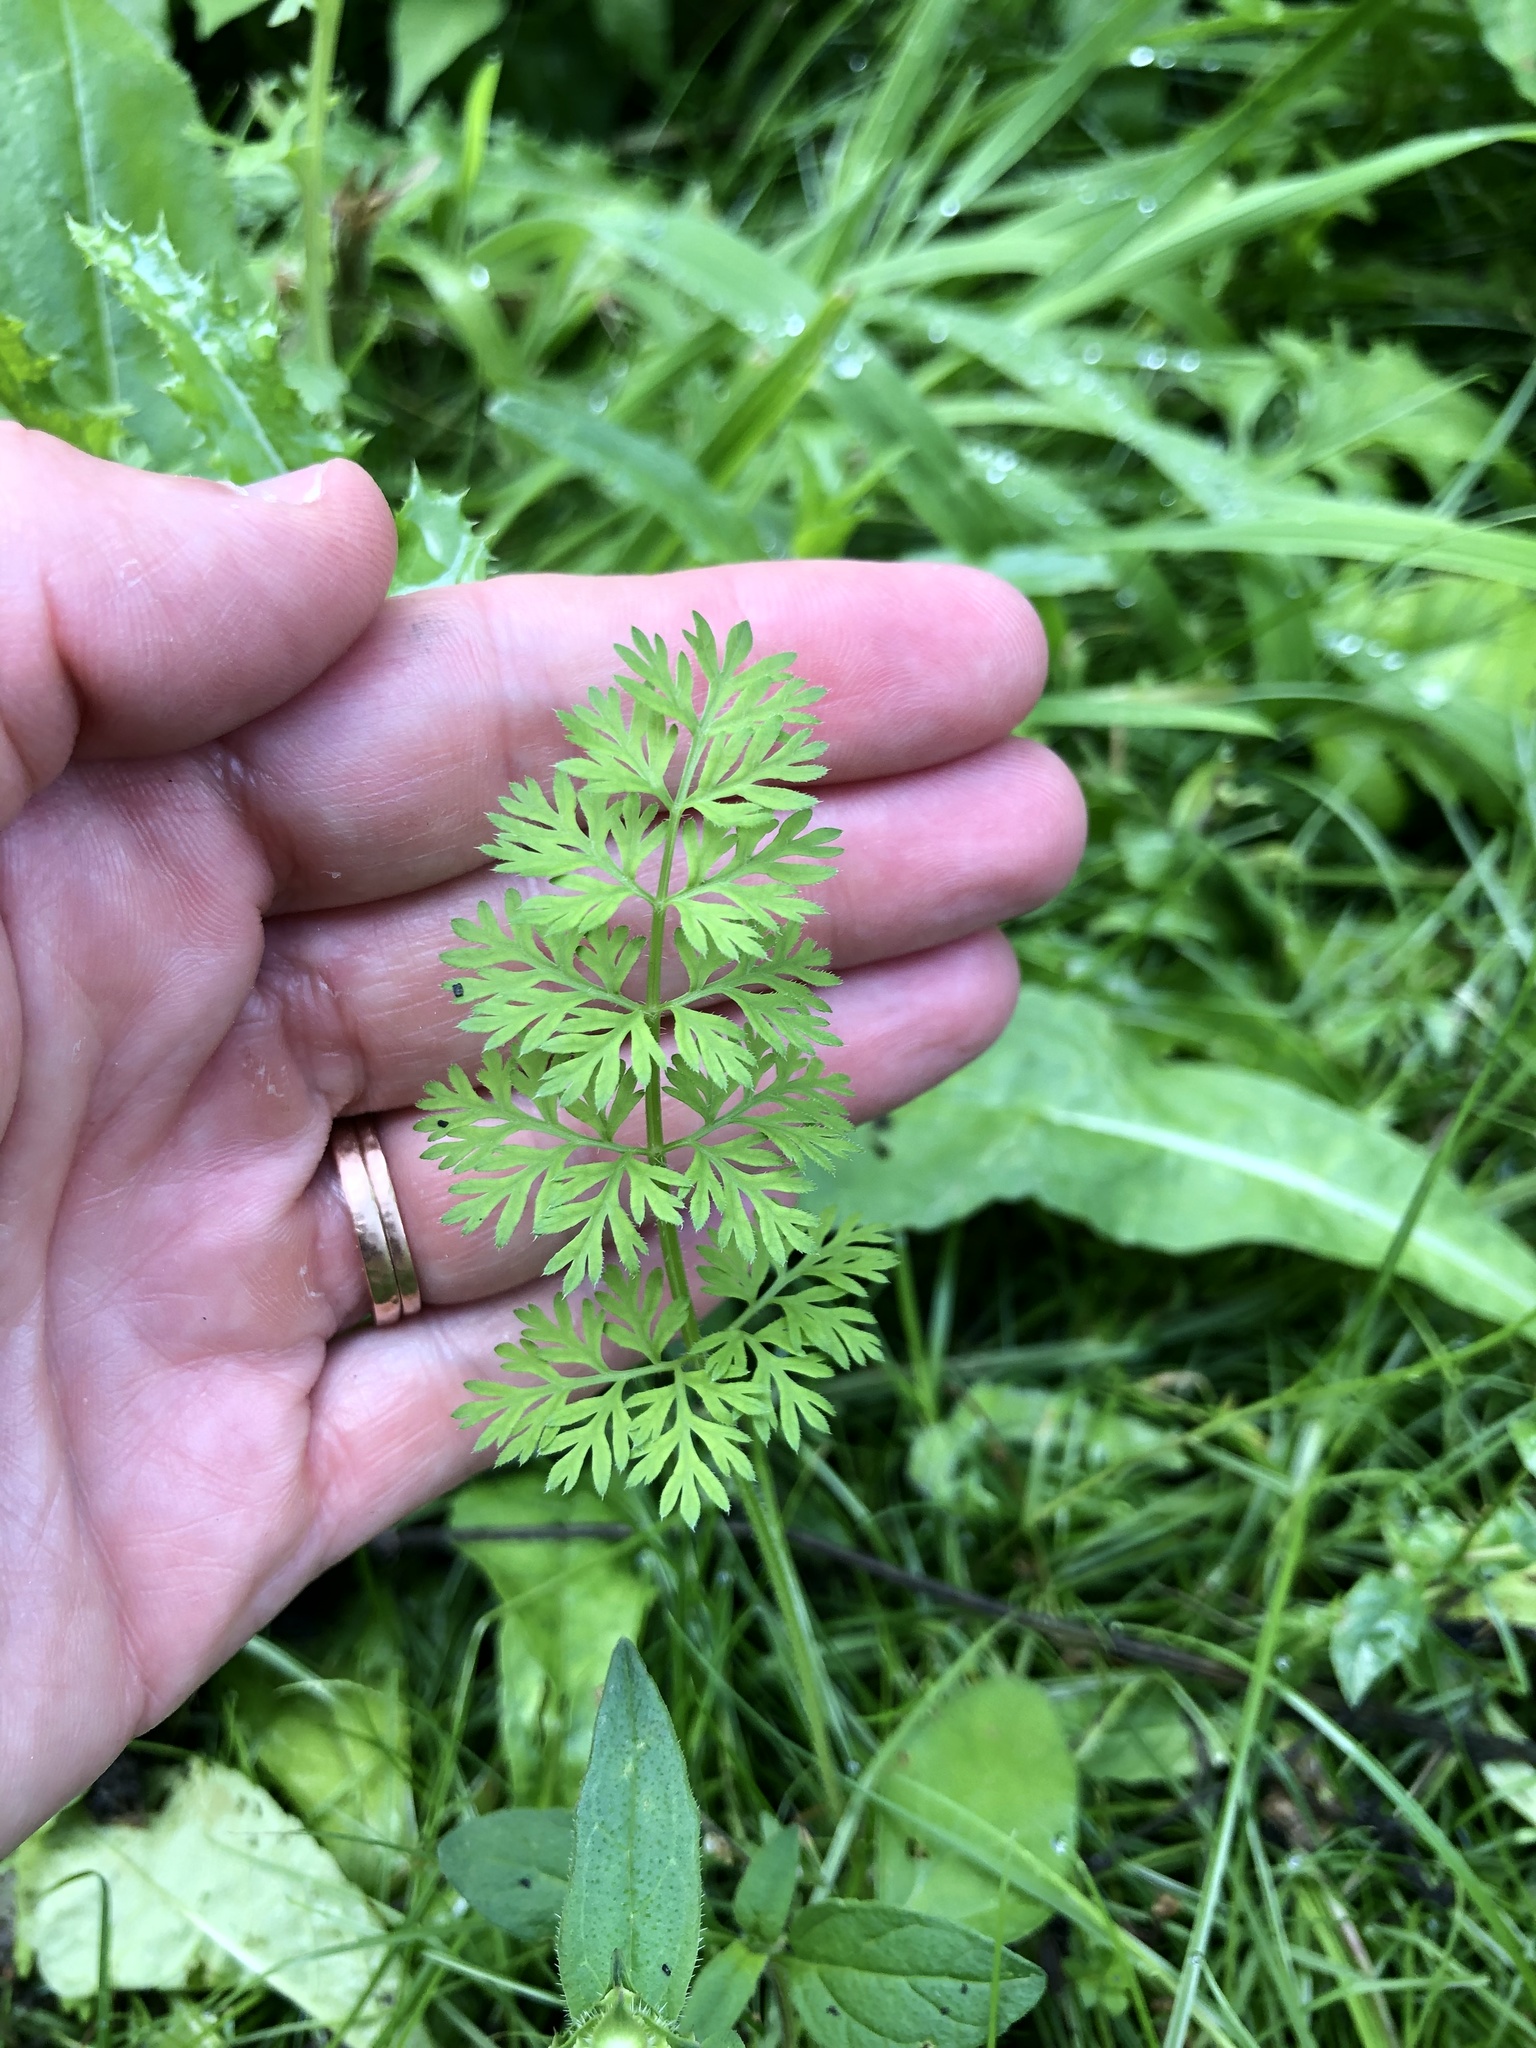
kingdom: Plantae
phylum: Tracheophyta
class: Magnoliopsida
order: Apiales
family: Apiaceae
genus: Daucus
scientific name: Daucus carota
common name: Wild carrot
